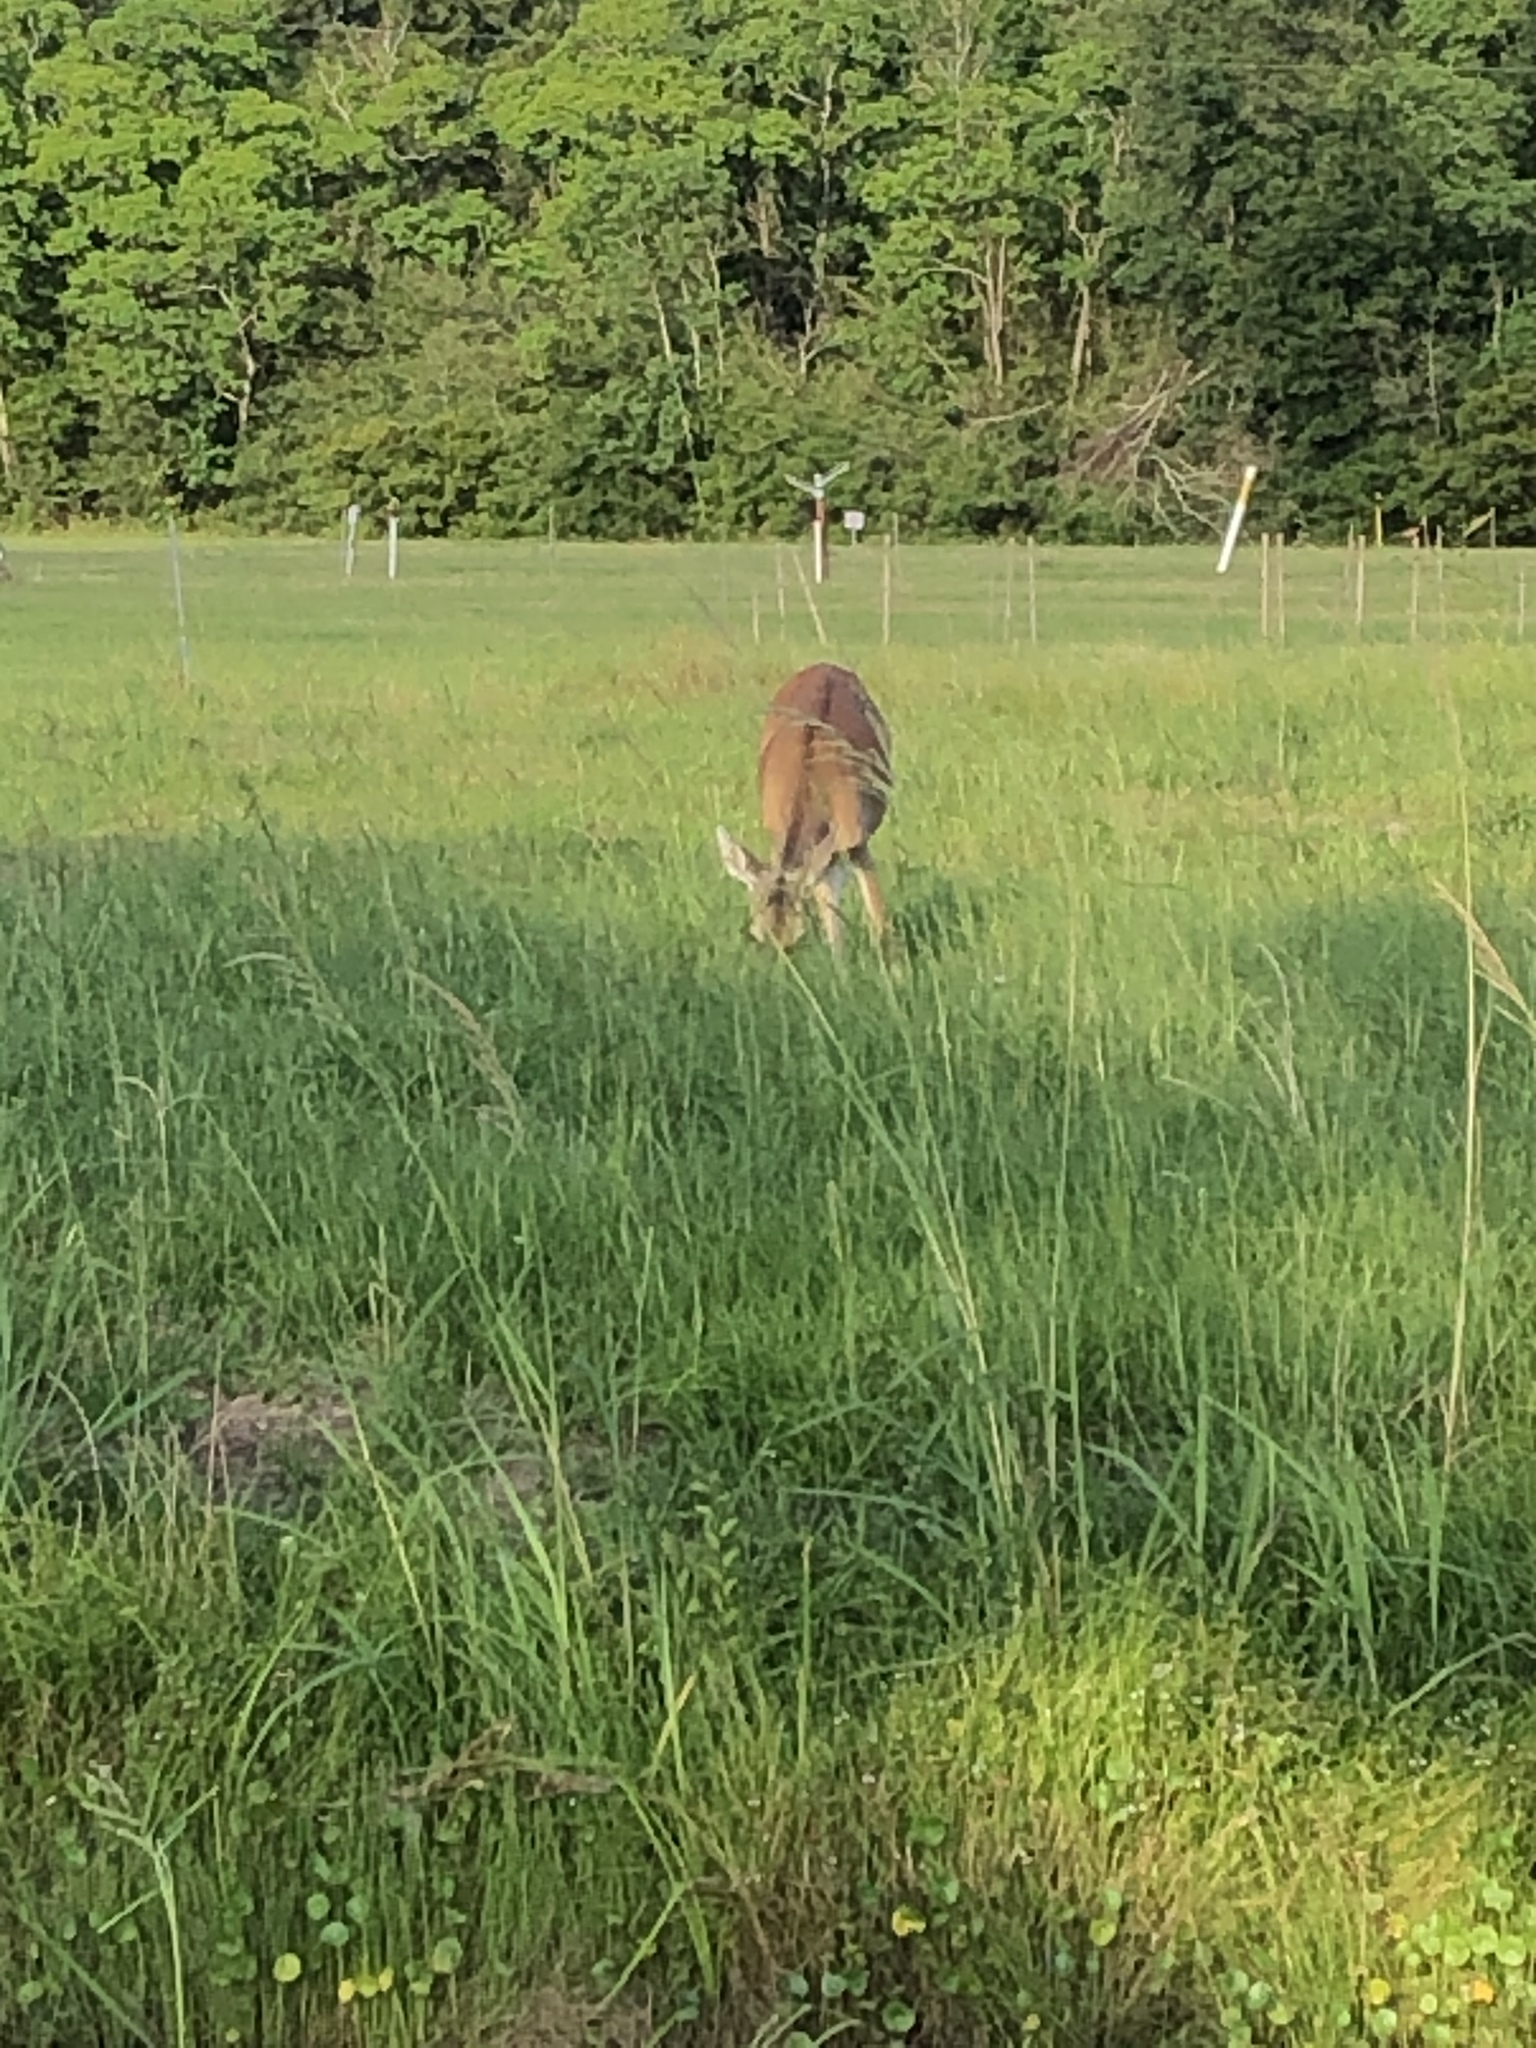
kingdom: Animalia
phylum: Chordata
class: Mammalia
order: Artiodactyla
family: Cervidae
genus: Odocoileus
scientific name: Odocoileus virginianus
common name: White-tailed deer
